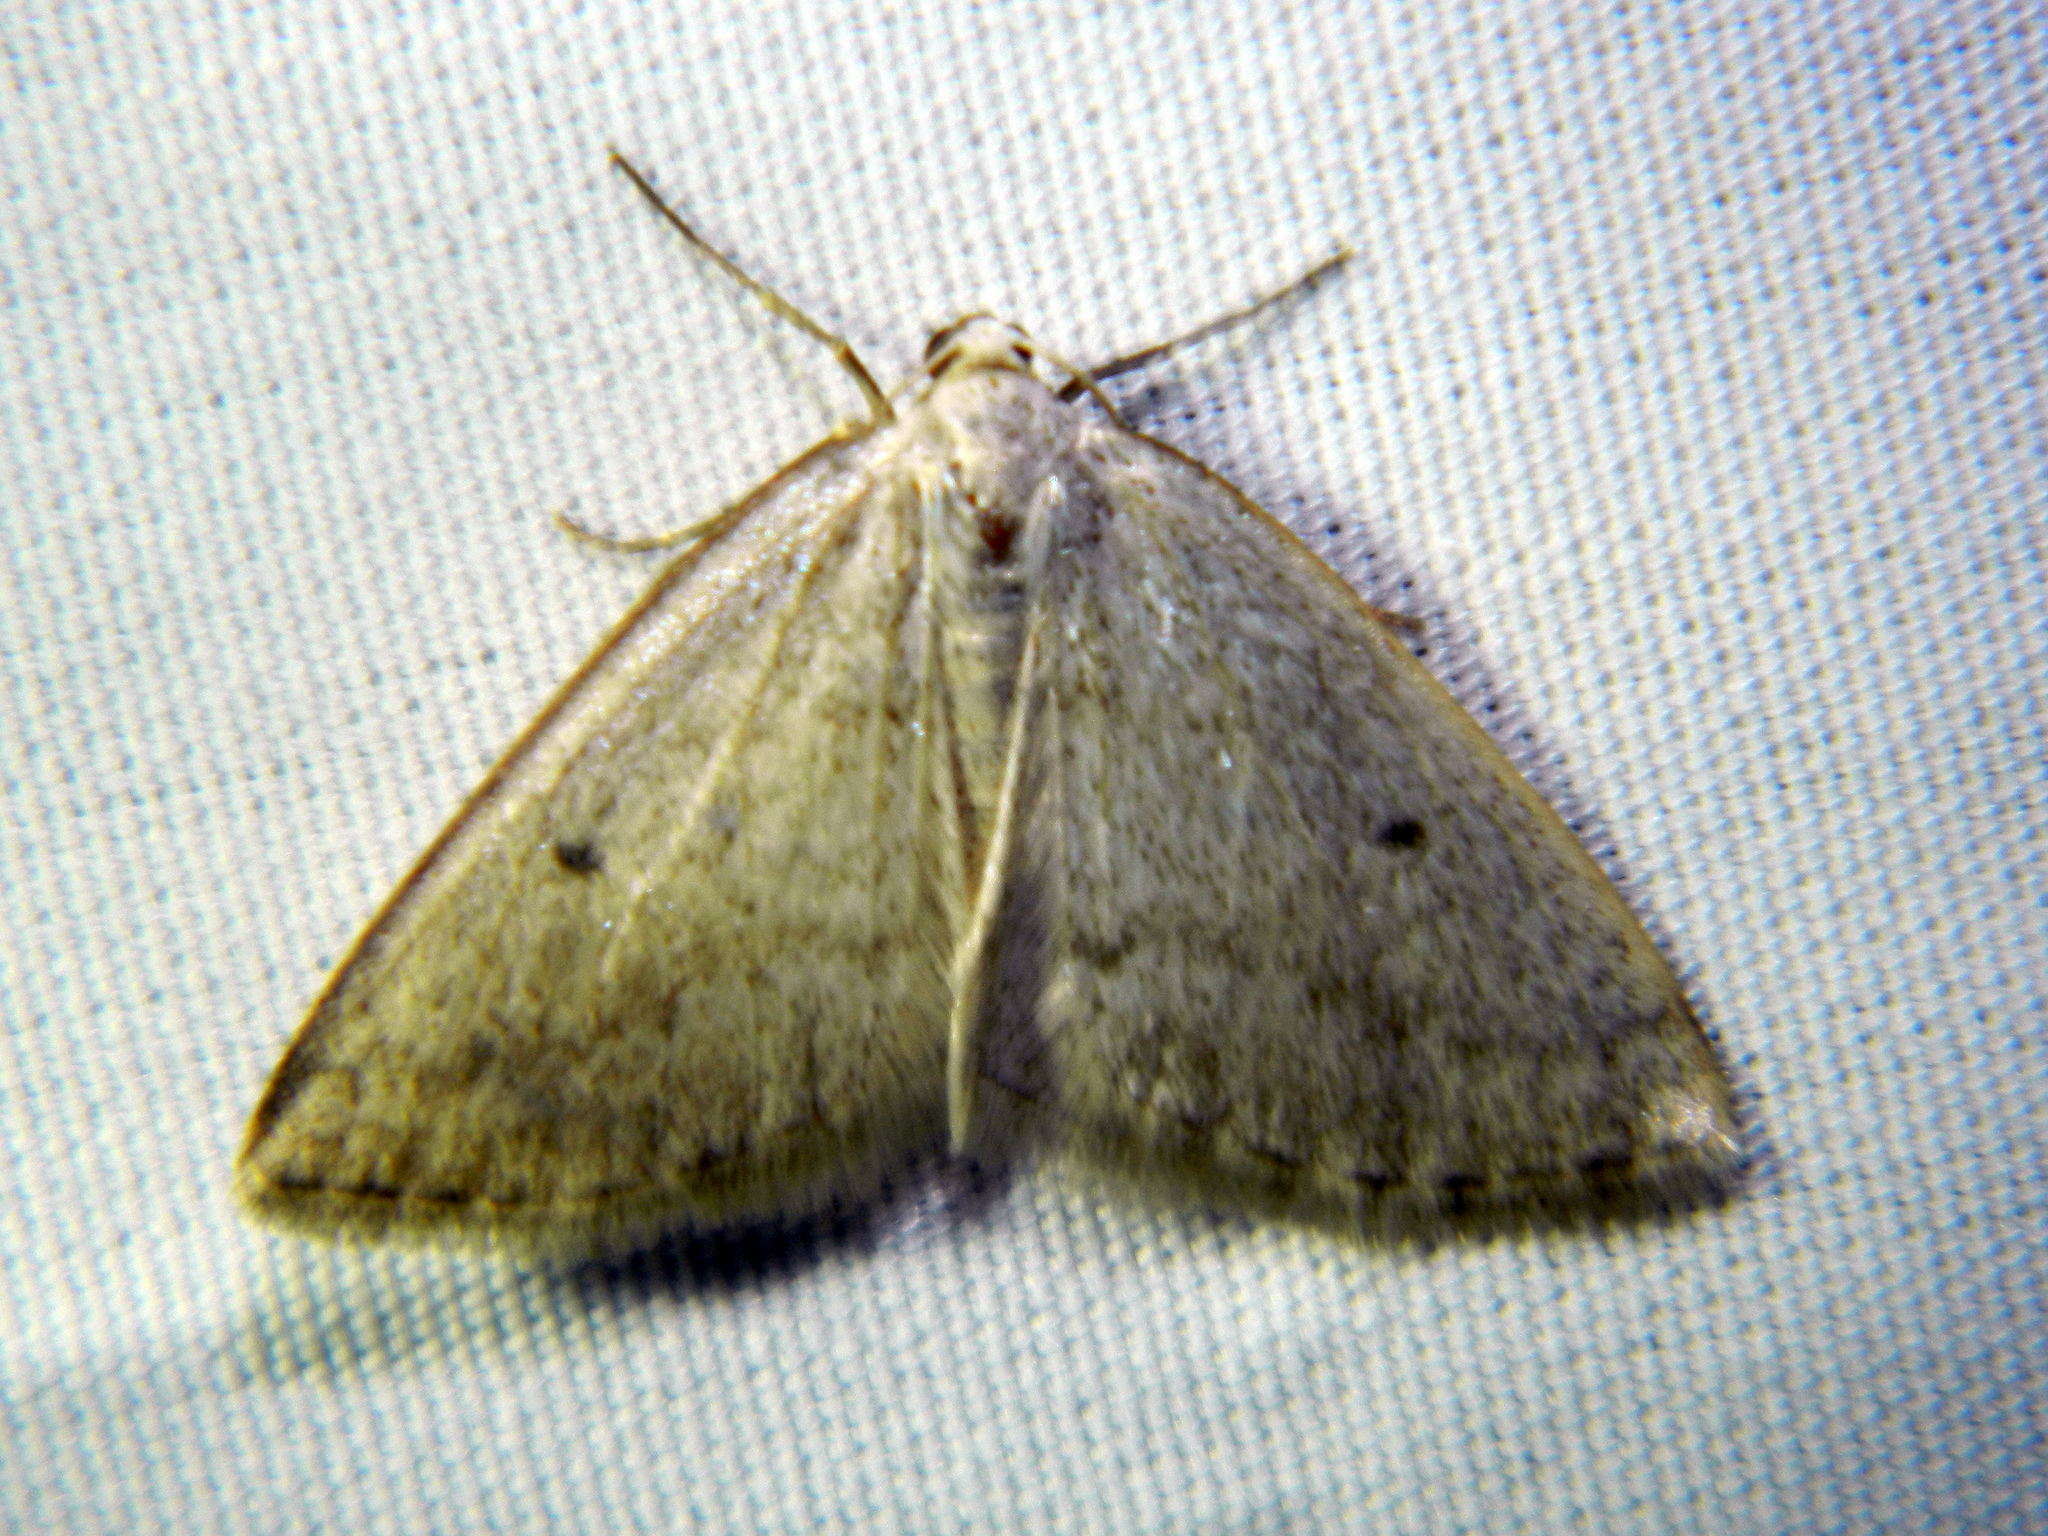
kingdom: Animalia
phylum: Arthropoda
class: Insecta
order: Lepidoptera
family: Geometridae
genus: Lomographa
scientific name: Lomographa glomeraria
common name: Gray spring moth
